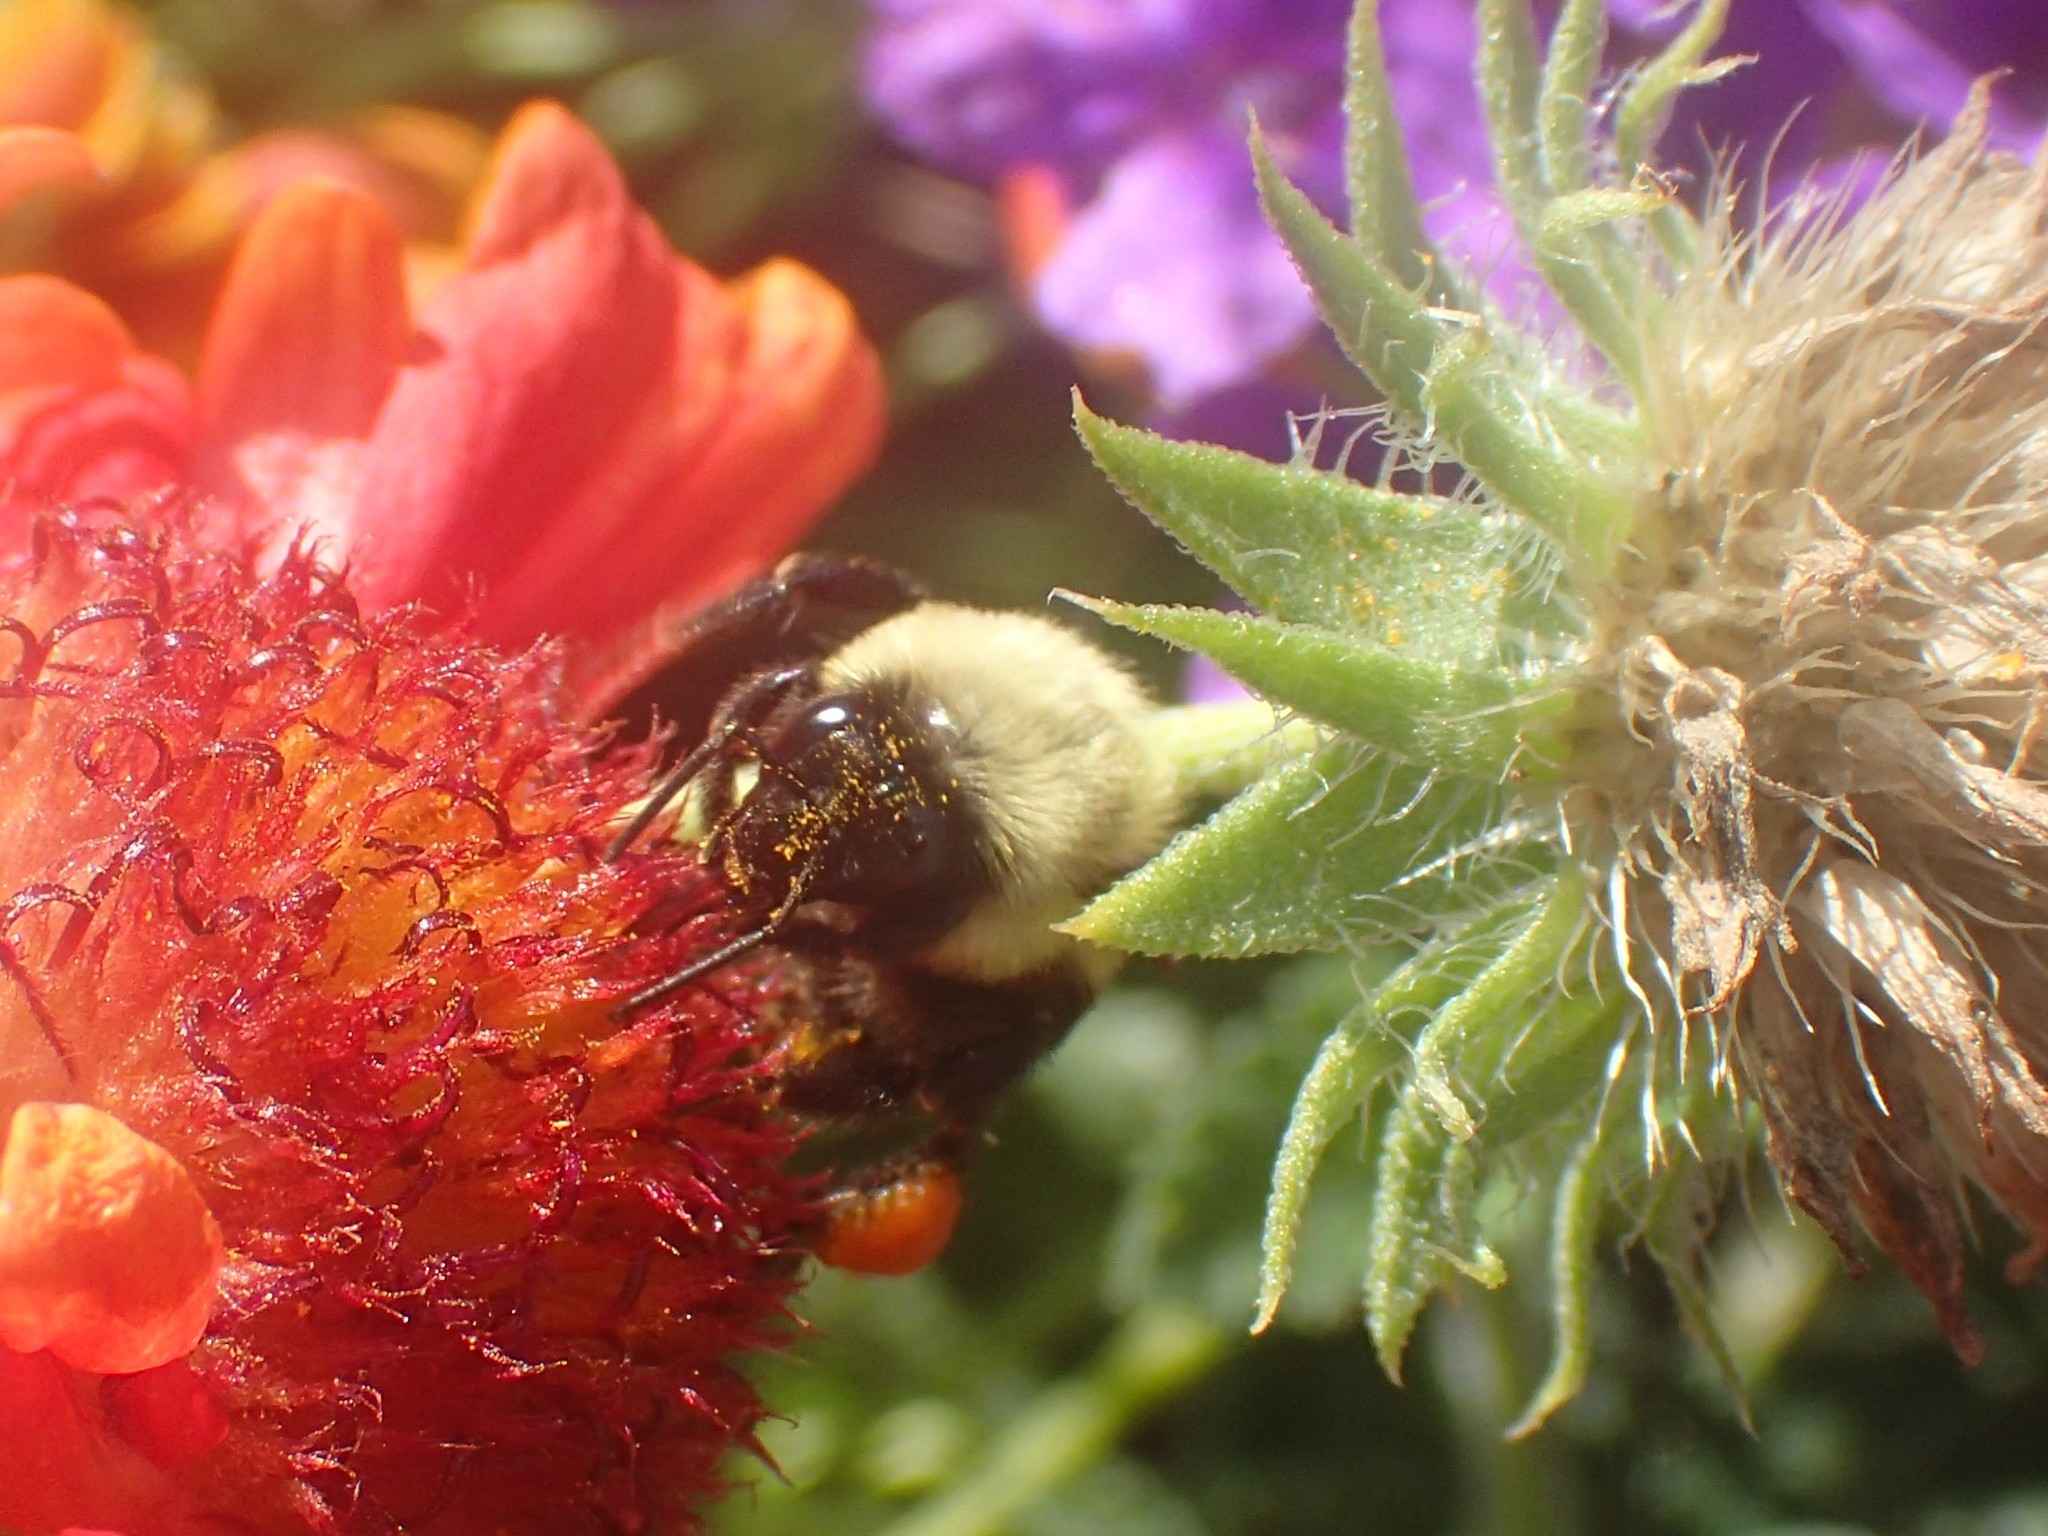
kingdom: Animalia
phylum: Arthropoda
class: Insecta
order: Hymenoptera
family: Apidae
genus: Bombus
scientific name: Bombus impatiens
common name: Common eastern bumble bee
